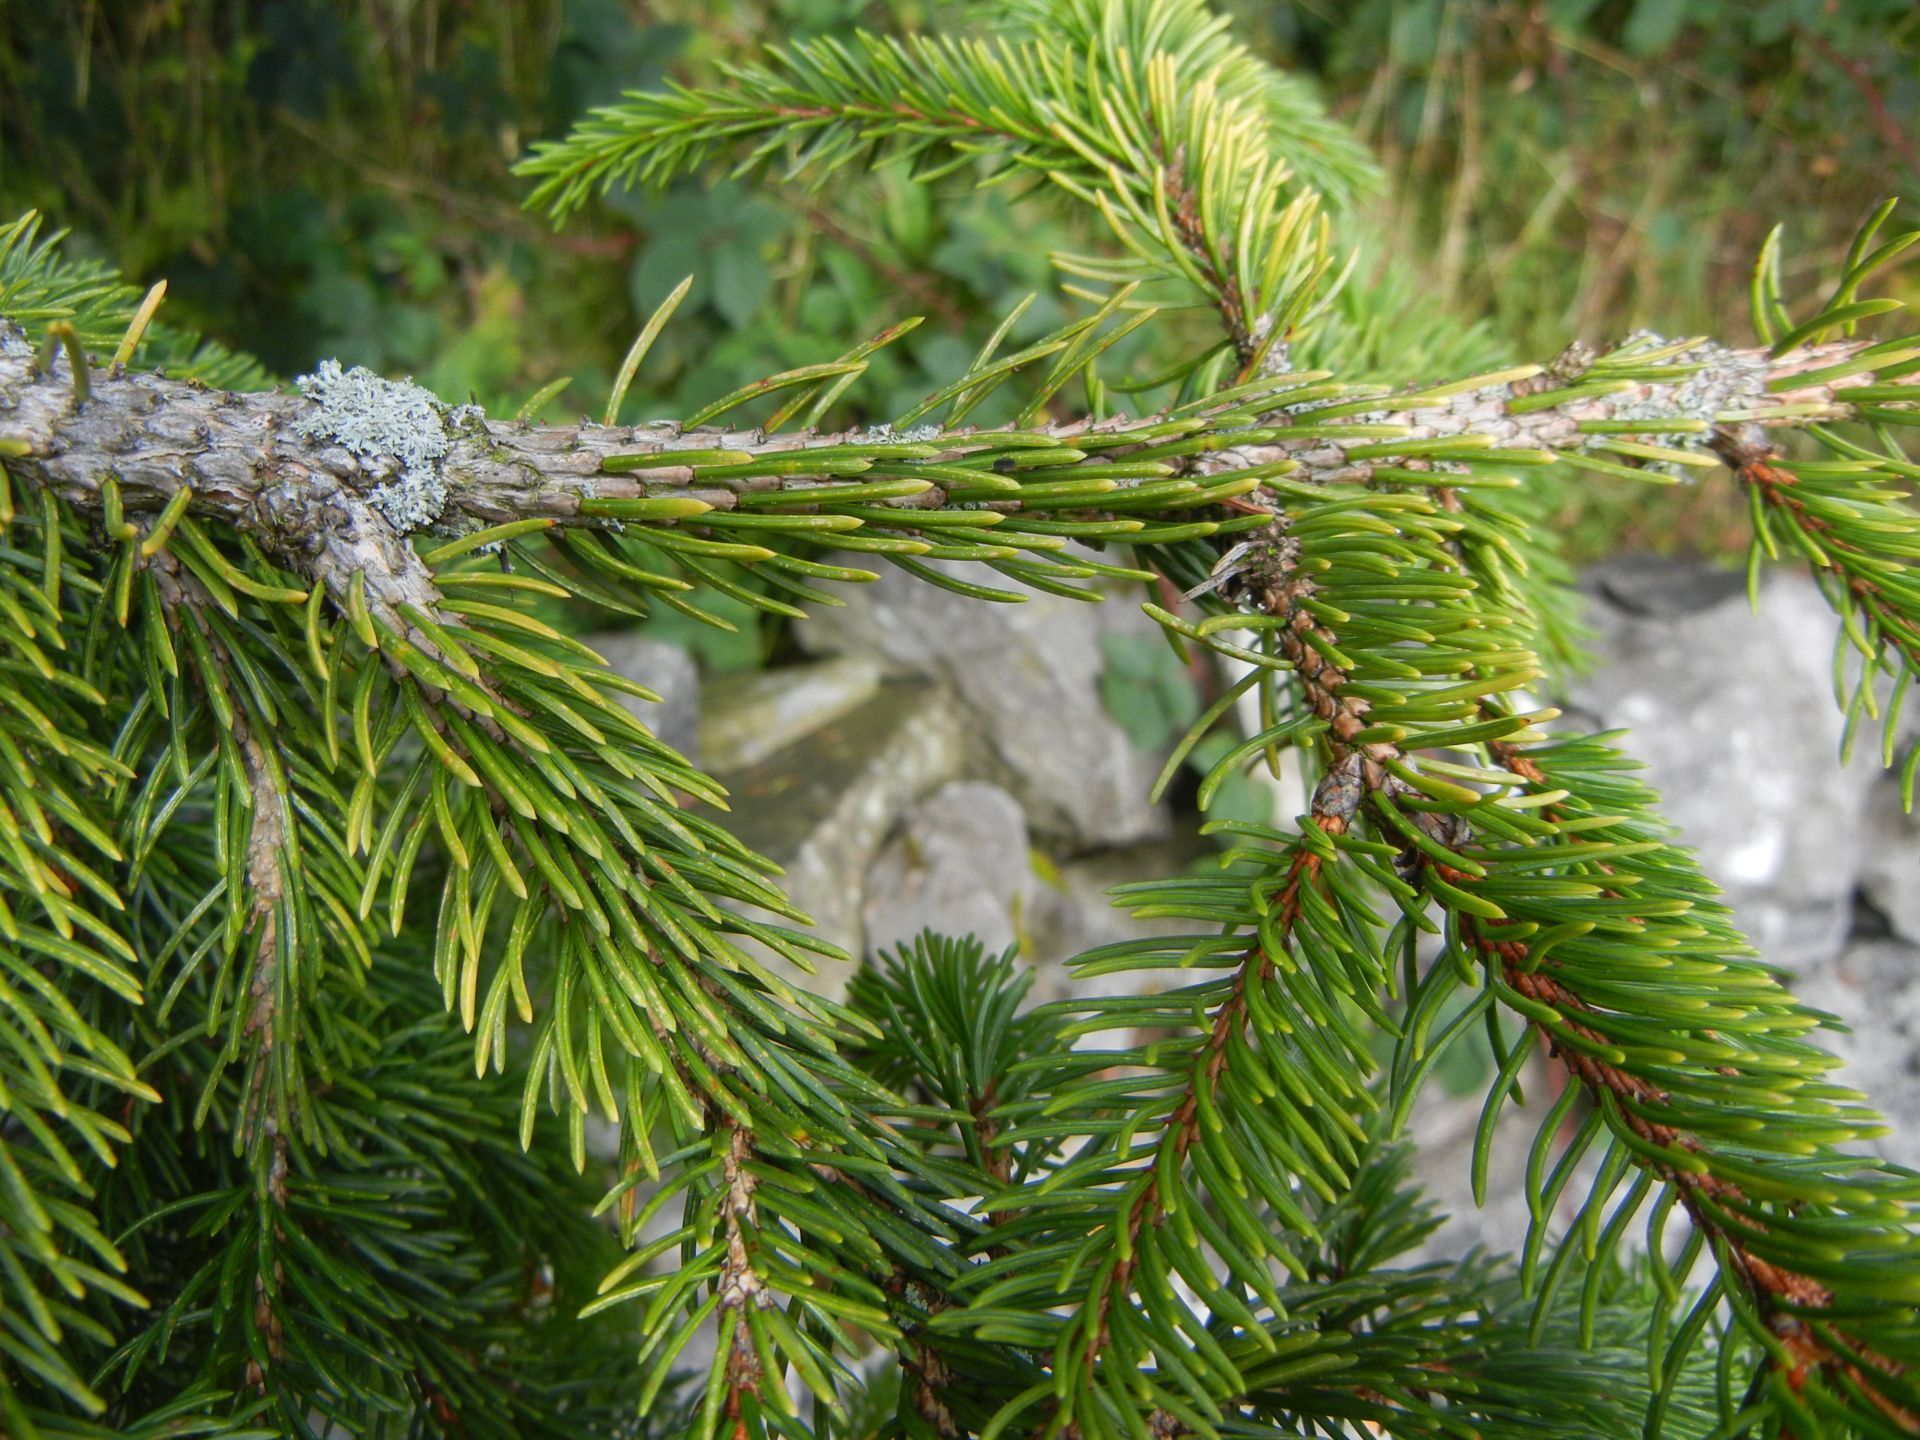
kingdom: Plantae
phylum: Tracheophyta
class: Pinopsida
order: Pinales
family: Pinaceae
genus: Picea
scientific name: Picea abies
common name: Norway spruce
